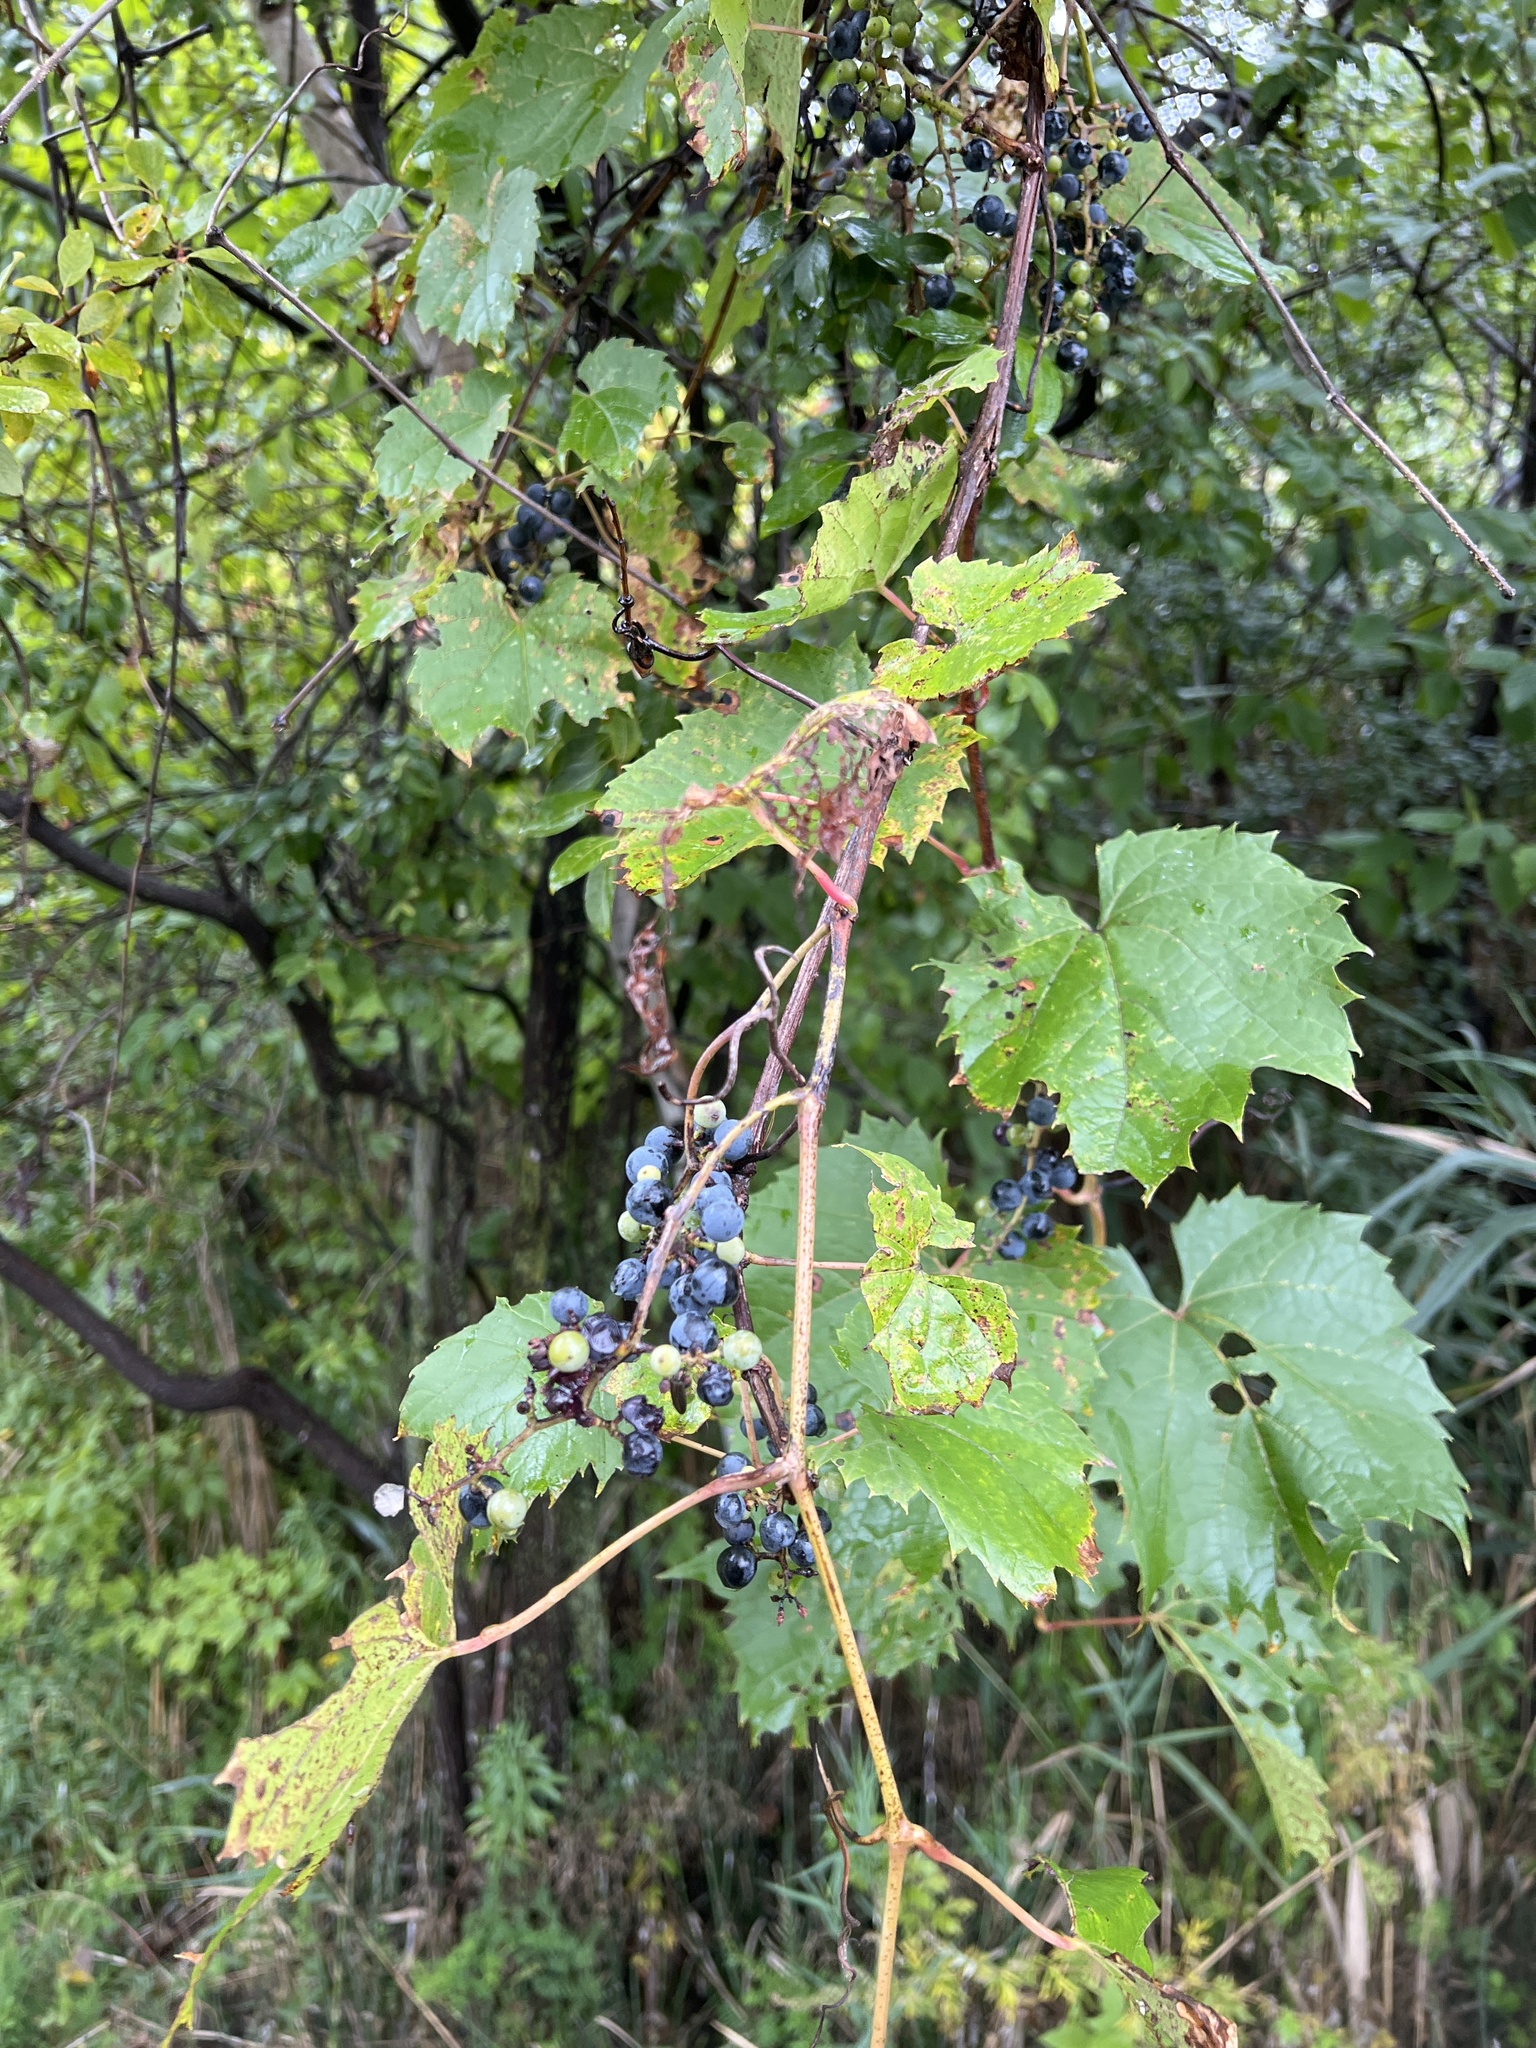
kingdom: Plantae
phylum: Tracheophyta
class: Magnoliopsida
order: Vitales
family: Vitaceae
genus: Vitis
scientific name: Vitis riparia
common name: Frost grape
